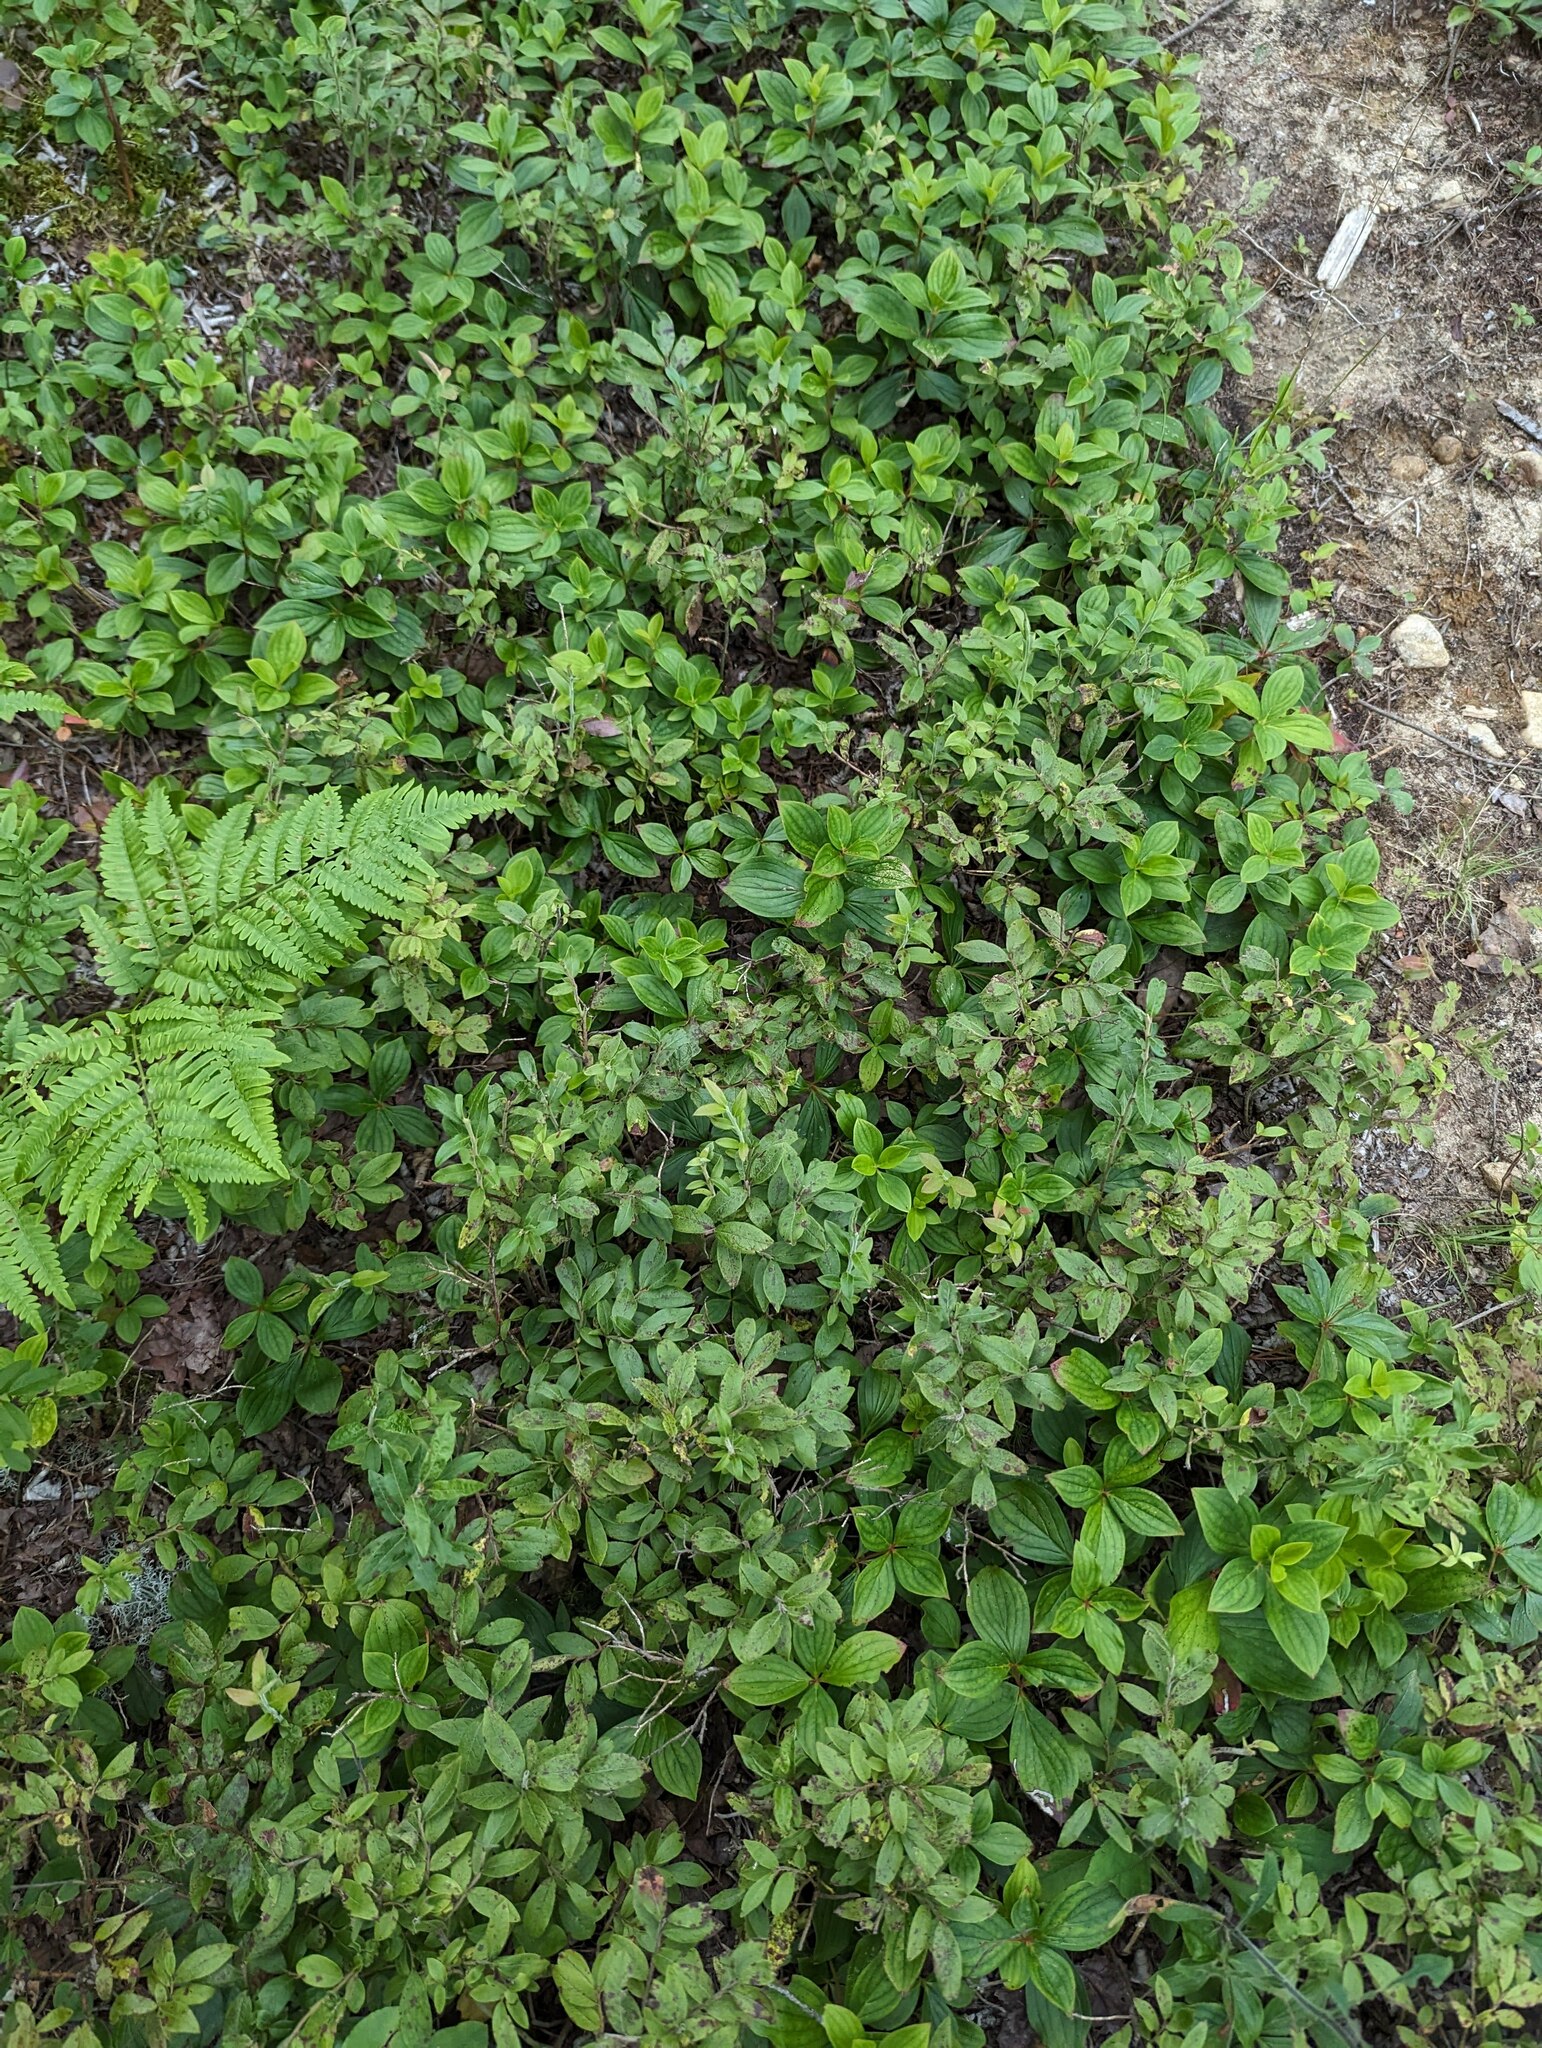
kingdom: Plantae
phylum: Tracheophyta
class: Magnoliopsida
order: Cornales
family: Cornaceae
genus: Cornus
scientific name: Cornus canadensis
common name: Creeping dogwood
